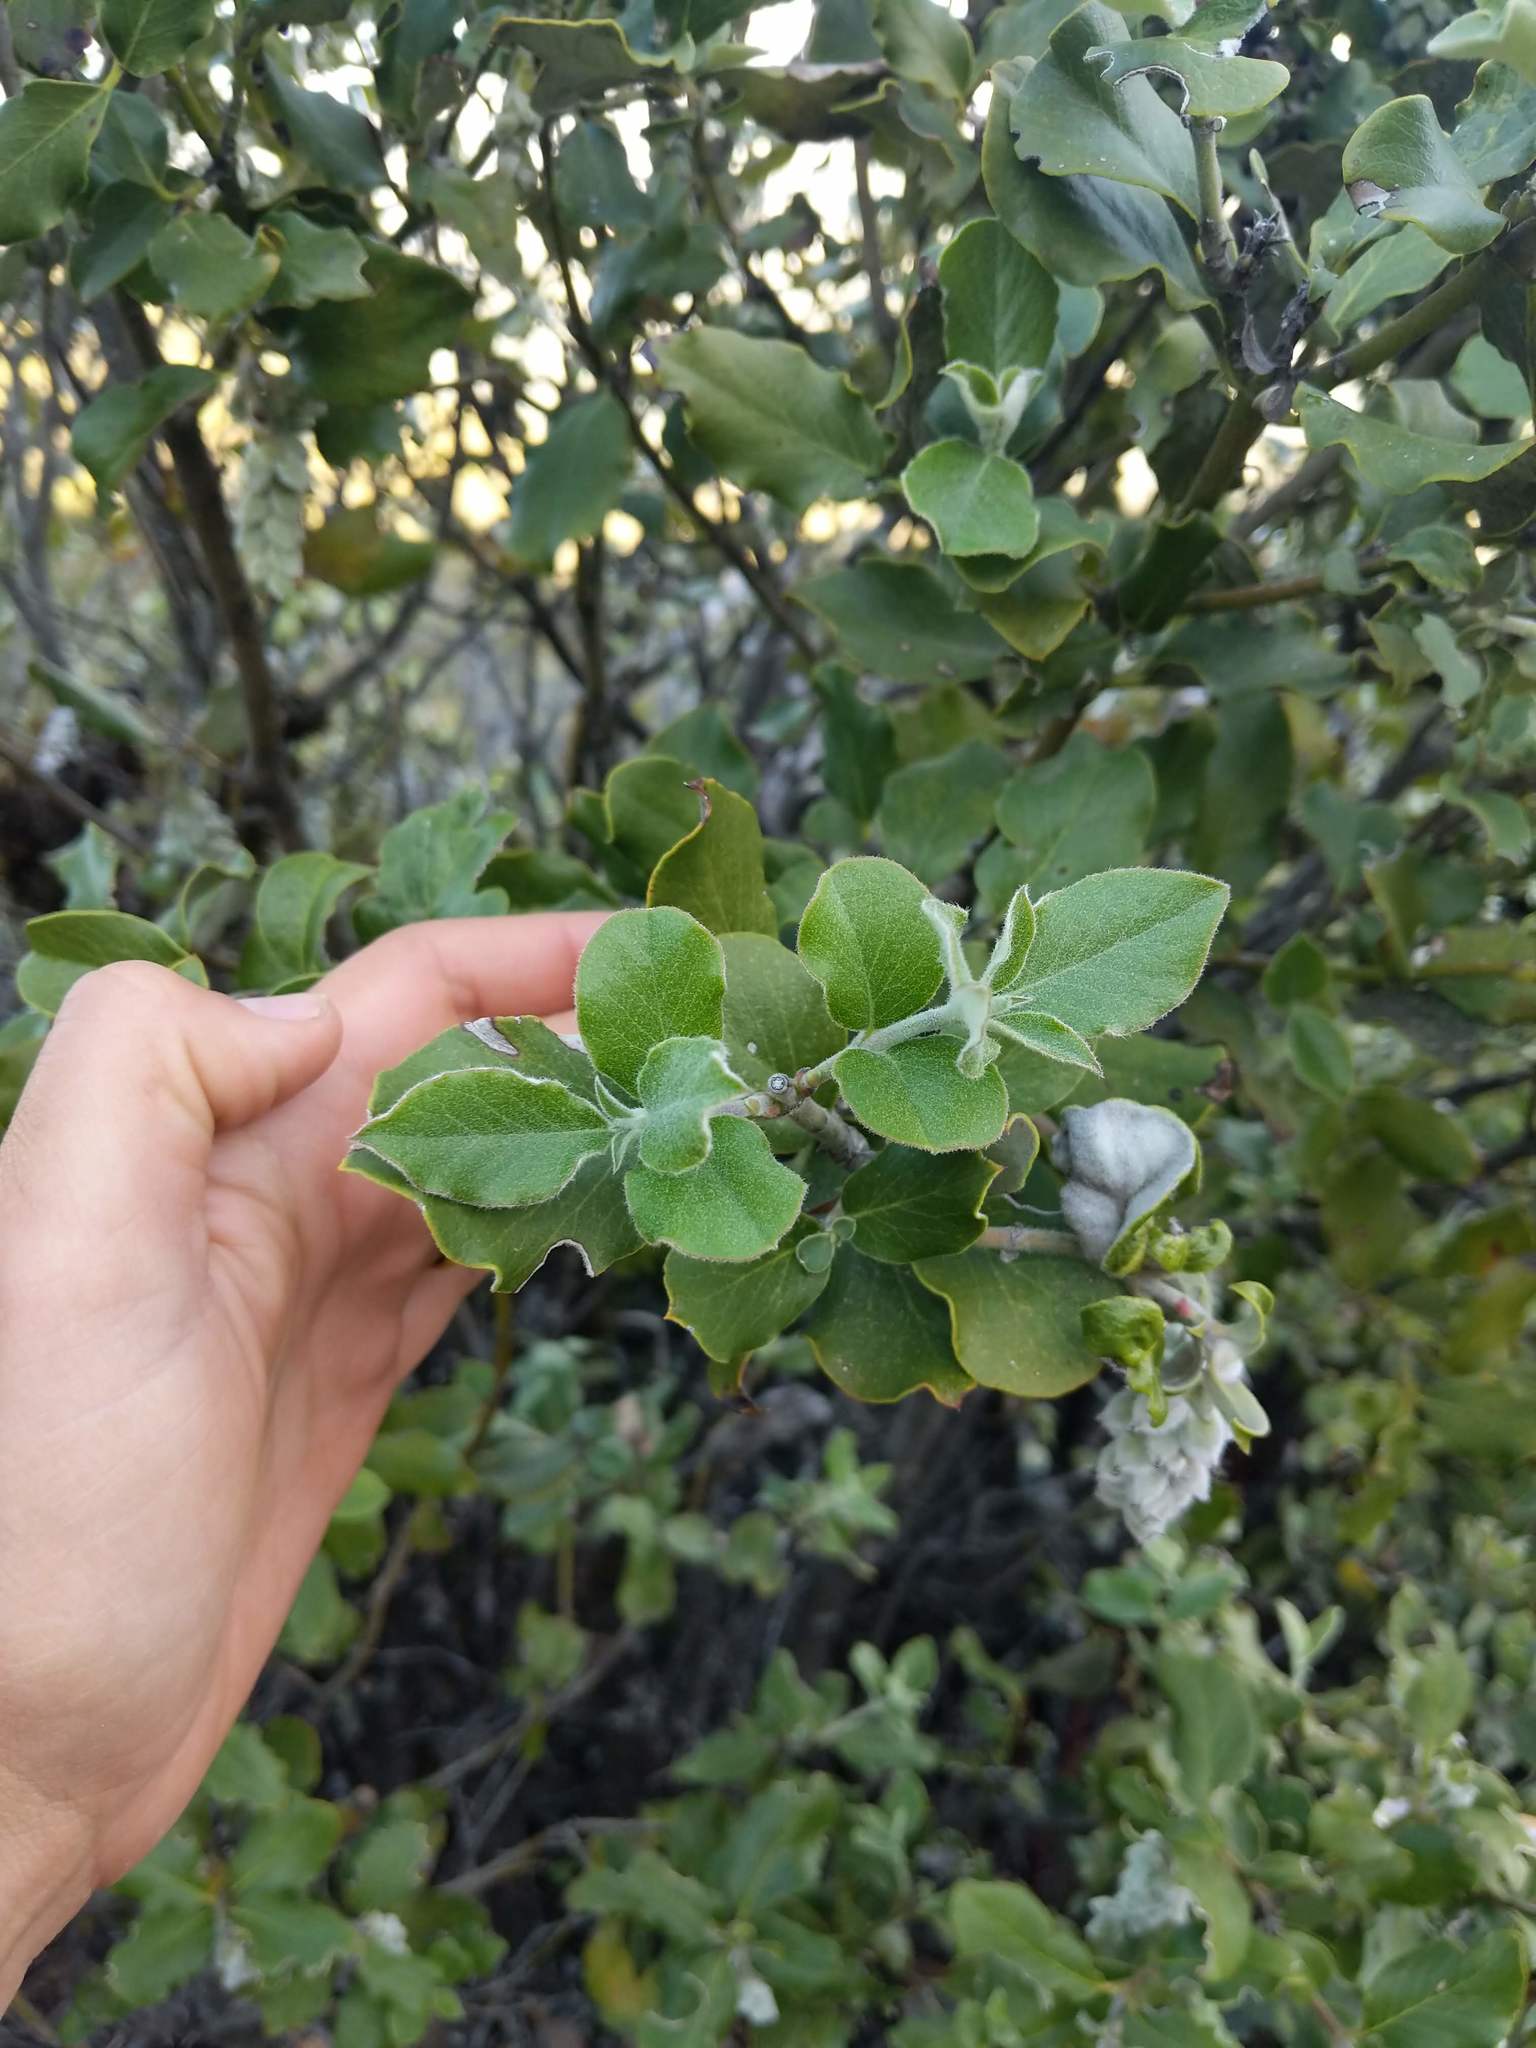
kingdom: Plantae
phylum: Tracheophyta
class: Magnoliopsida
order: Garryales
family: Garryaceae
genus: Garrya
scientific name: Garrya elliptica
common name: Silk-tassel
